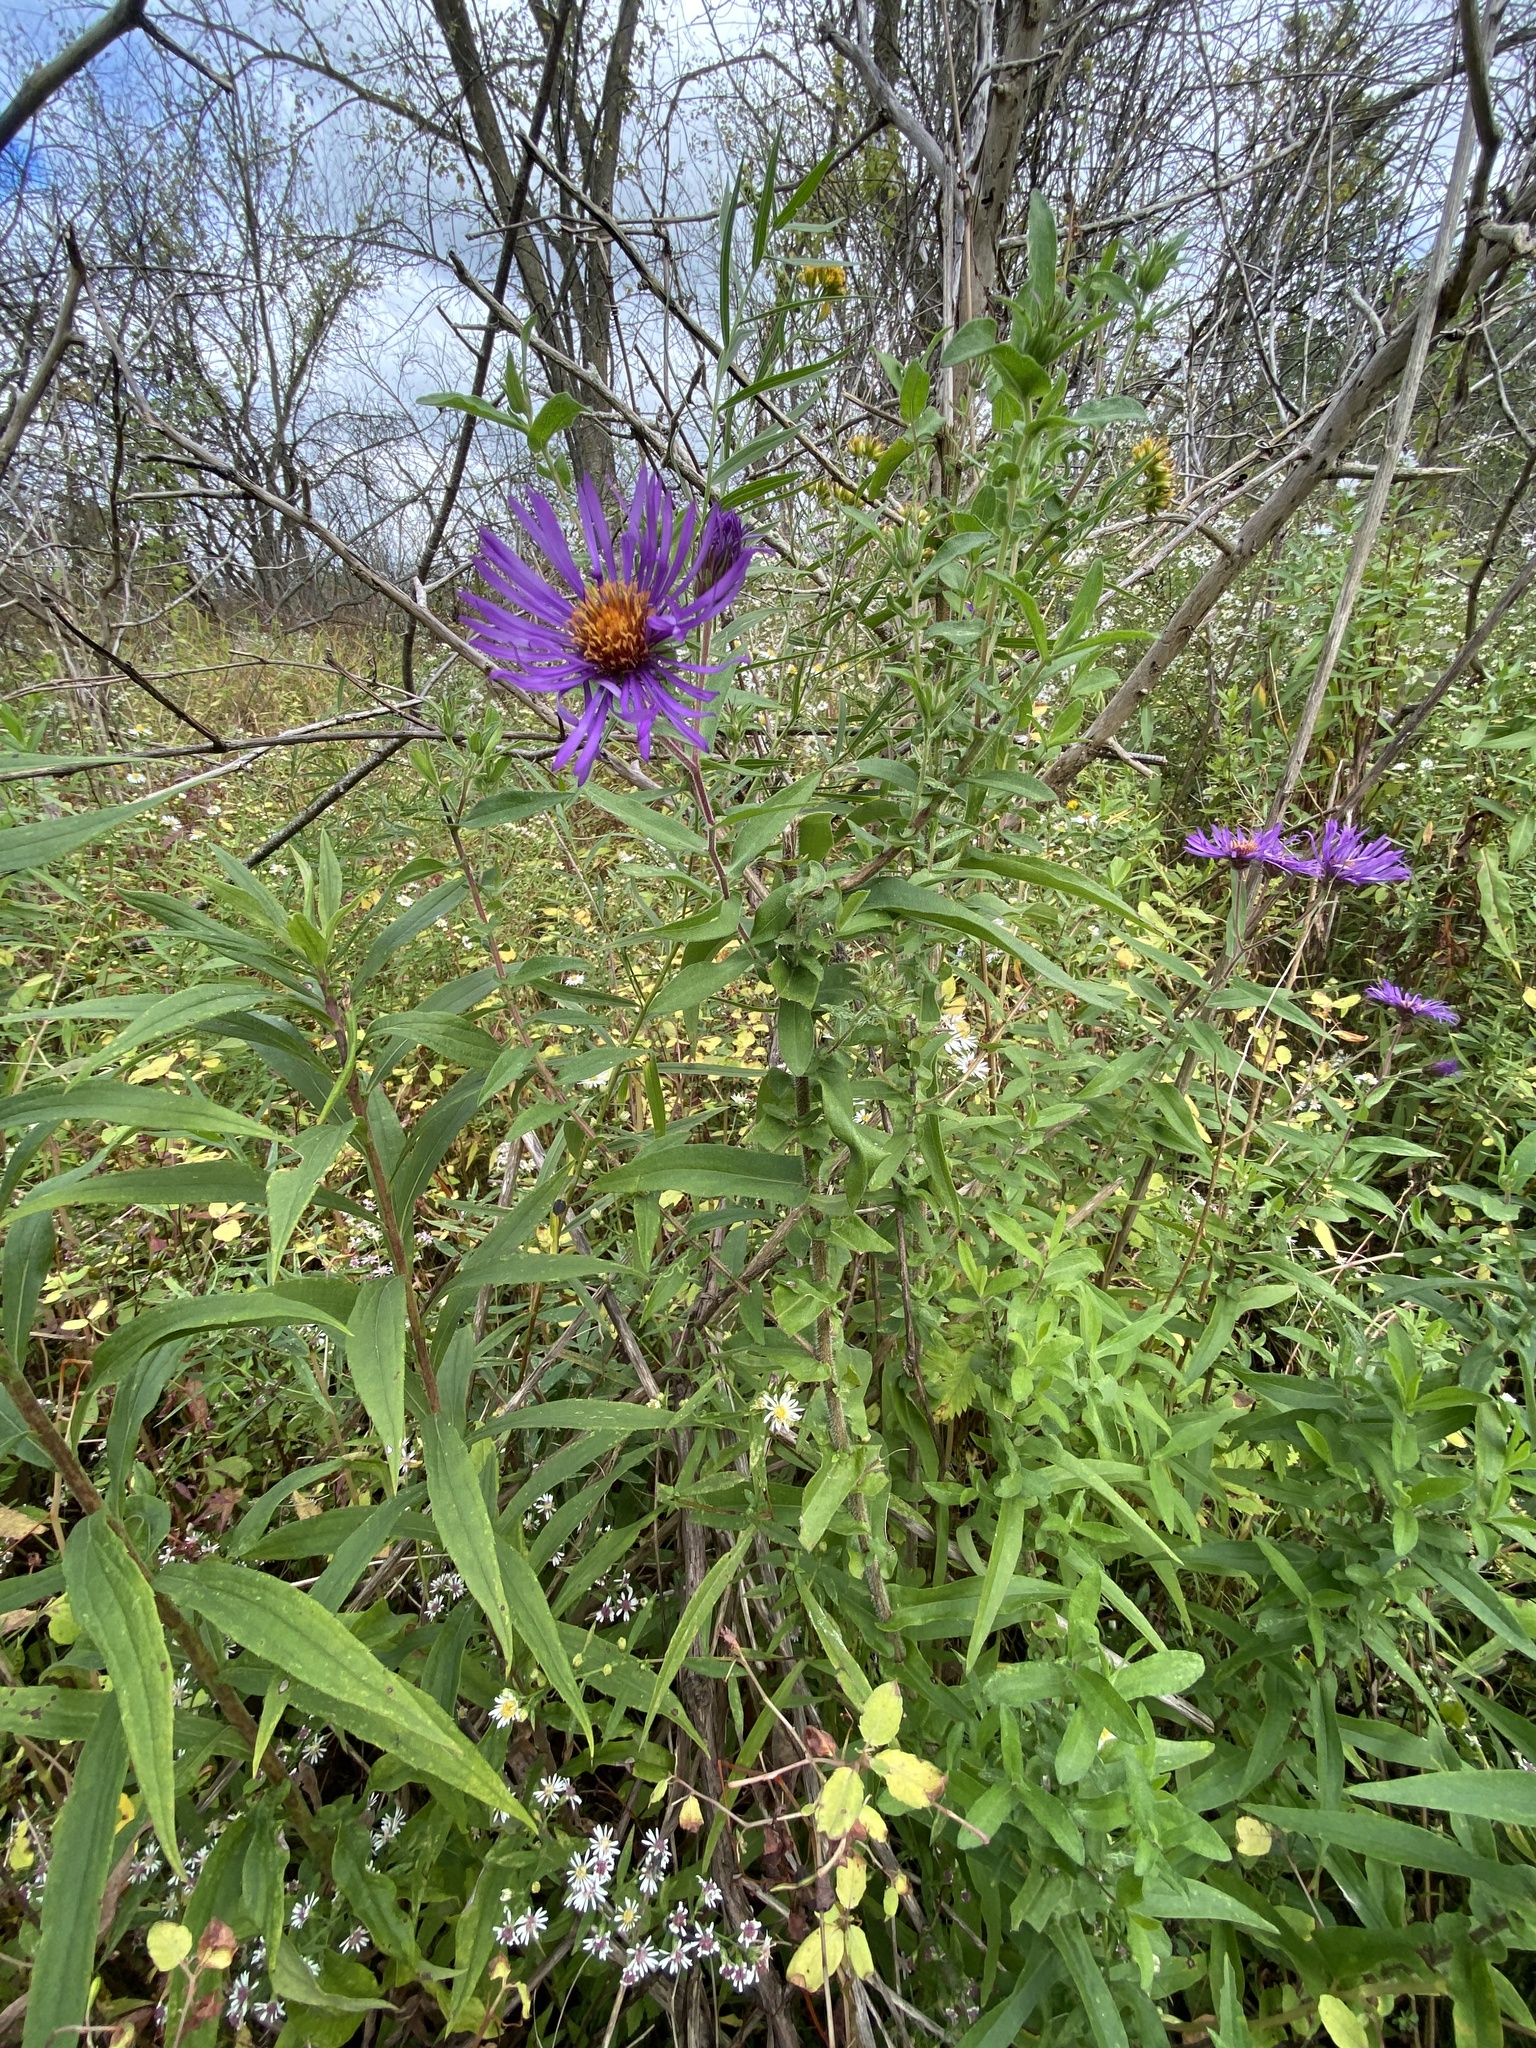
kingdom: Plantae
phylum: Tracheophyta
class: Magnoliopsida
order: Asterales
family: Asteraceae
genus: Symphyotrichum
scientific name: Symphyotrichum novae-angliae
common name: Michaelmas daisy
